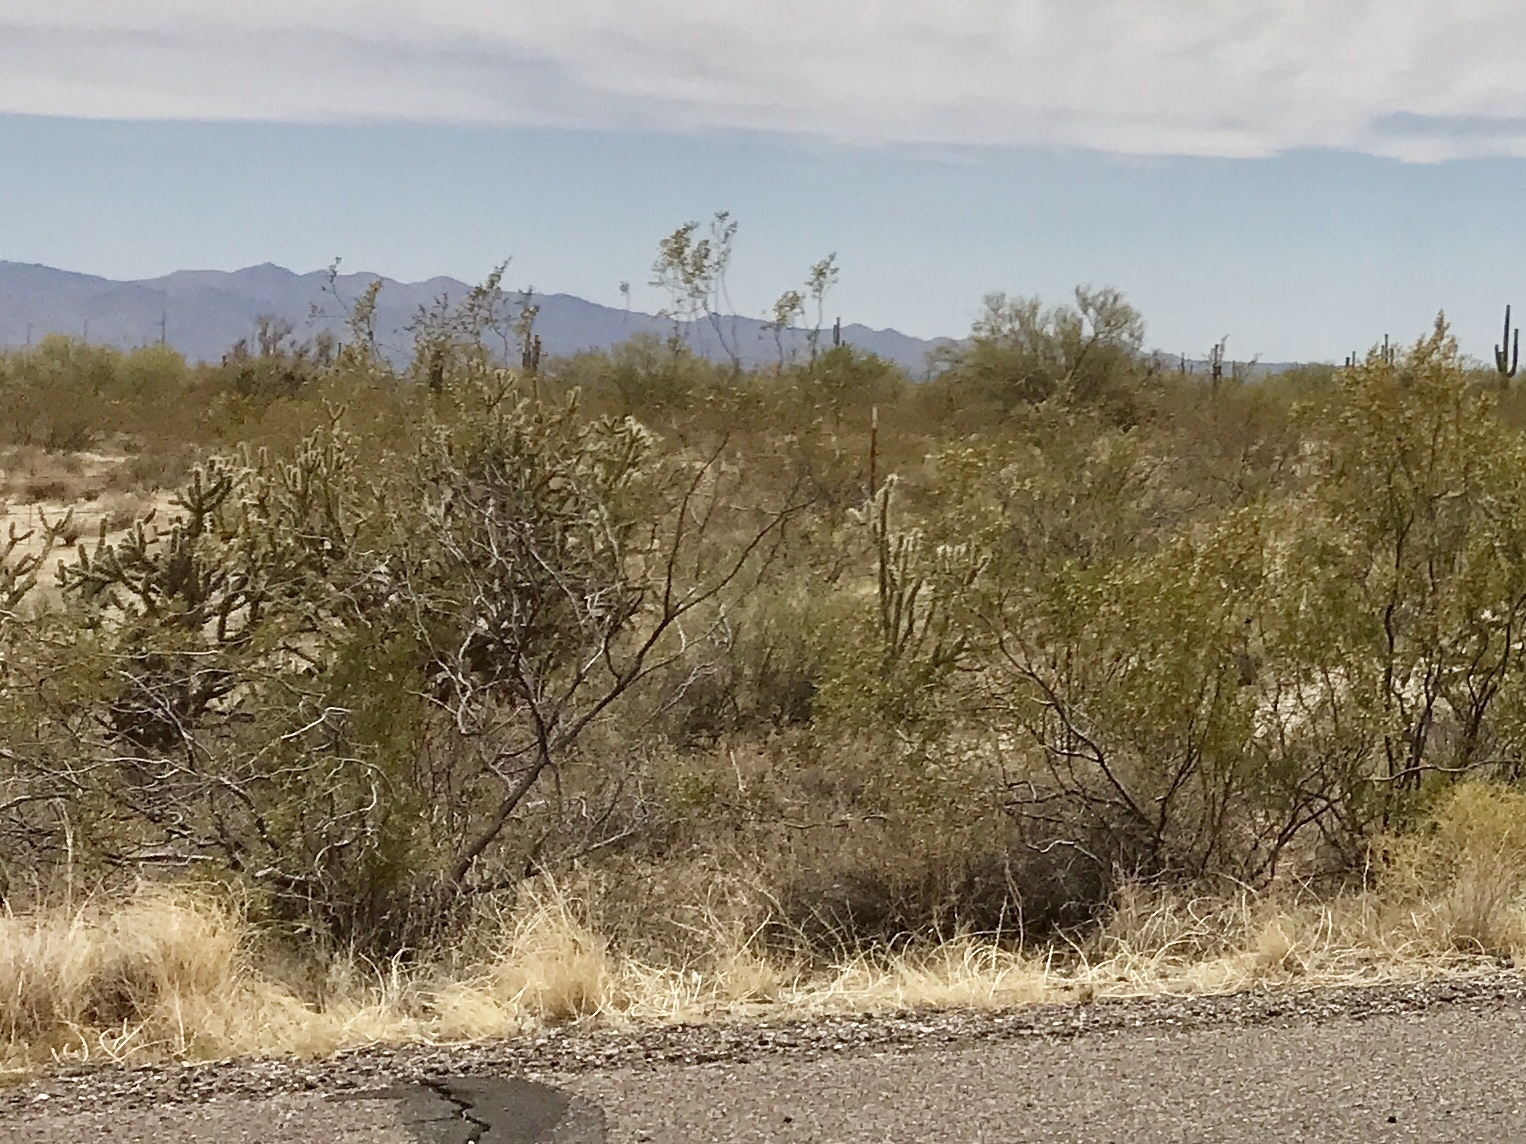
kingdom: Plantae
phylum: Tracheophyta
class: Magnoliopsida
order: Zygophyllales
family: Zygophyllaceae
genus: Larrea
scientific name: Larrea tridentata
